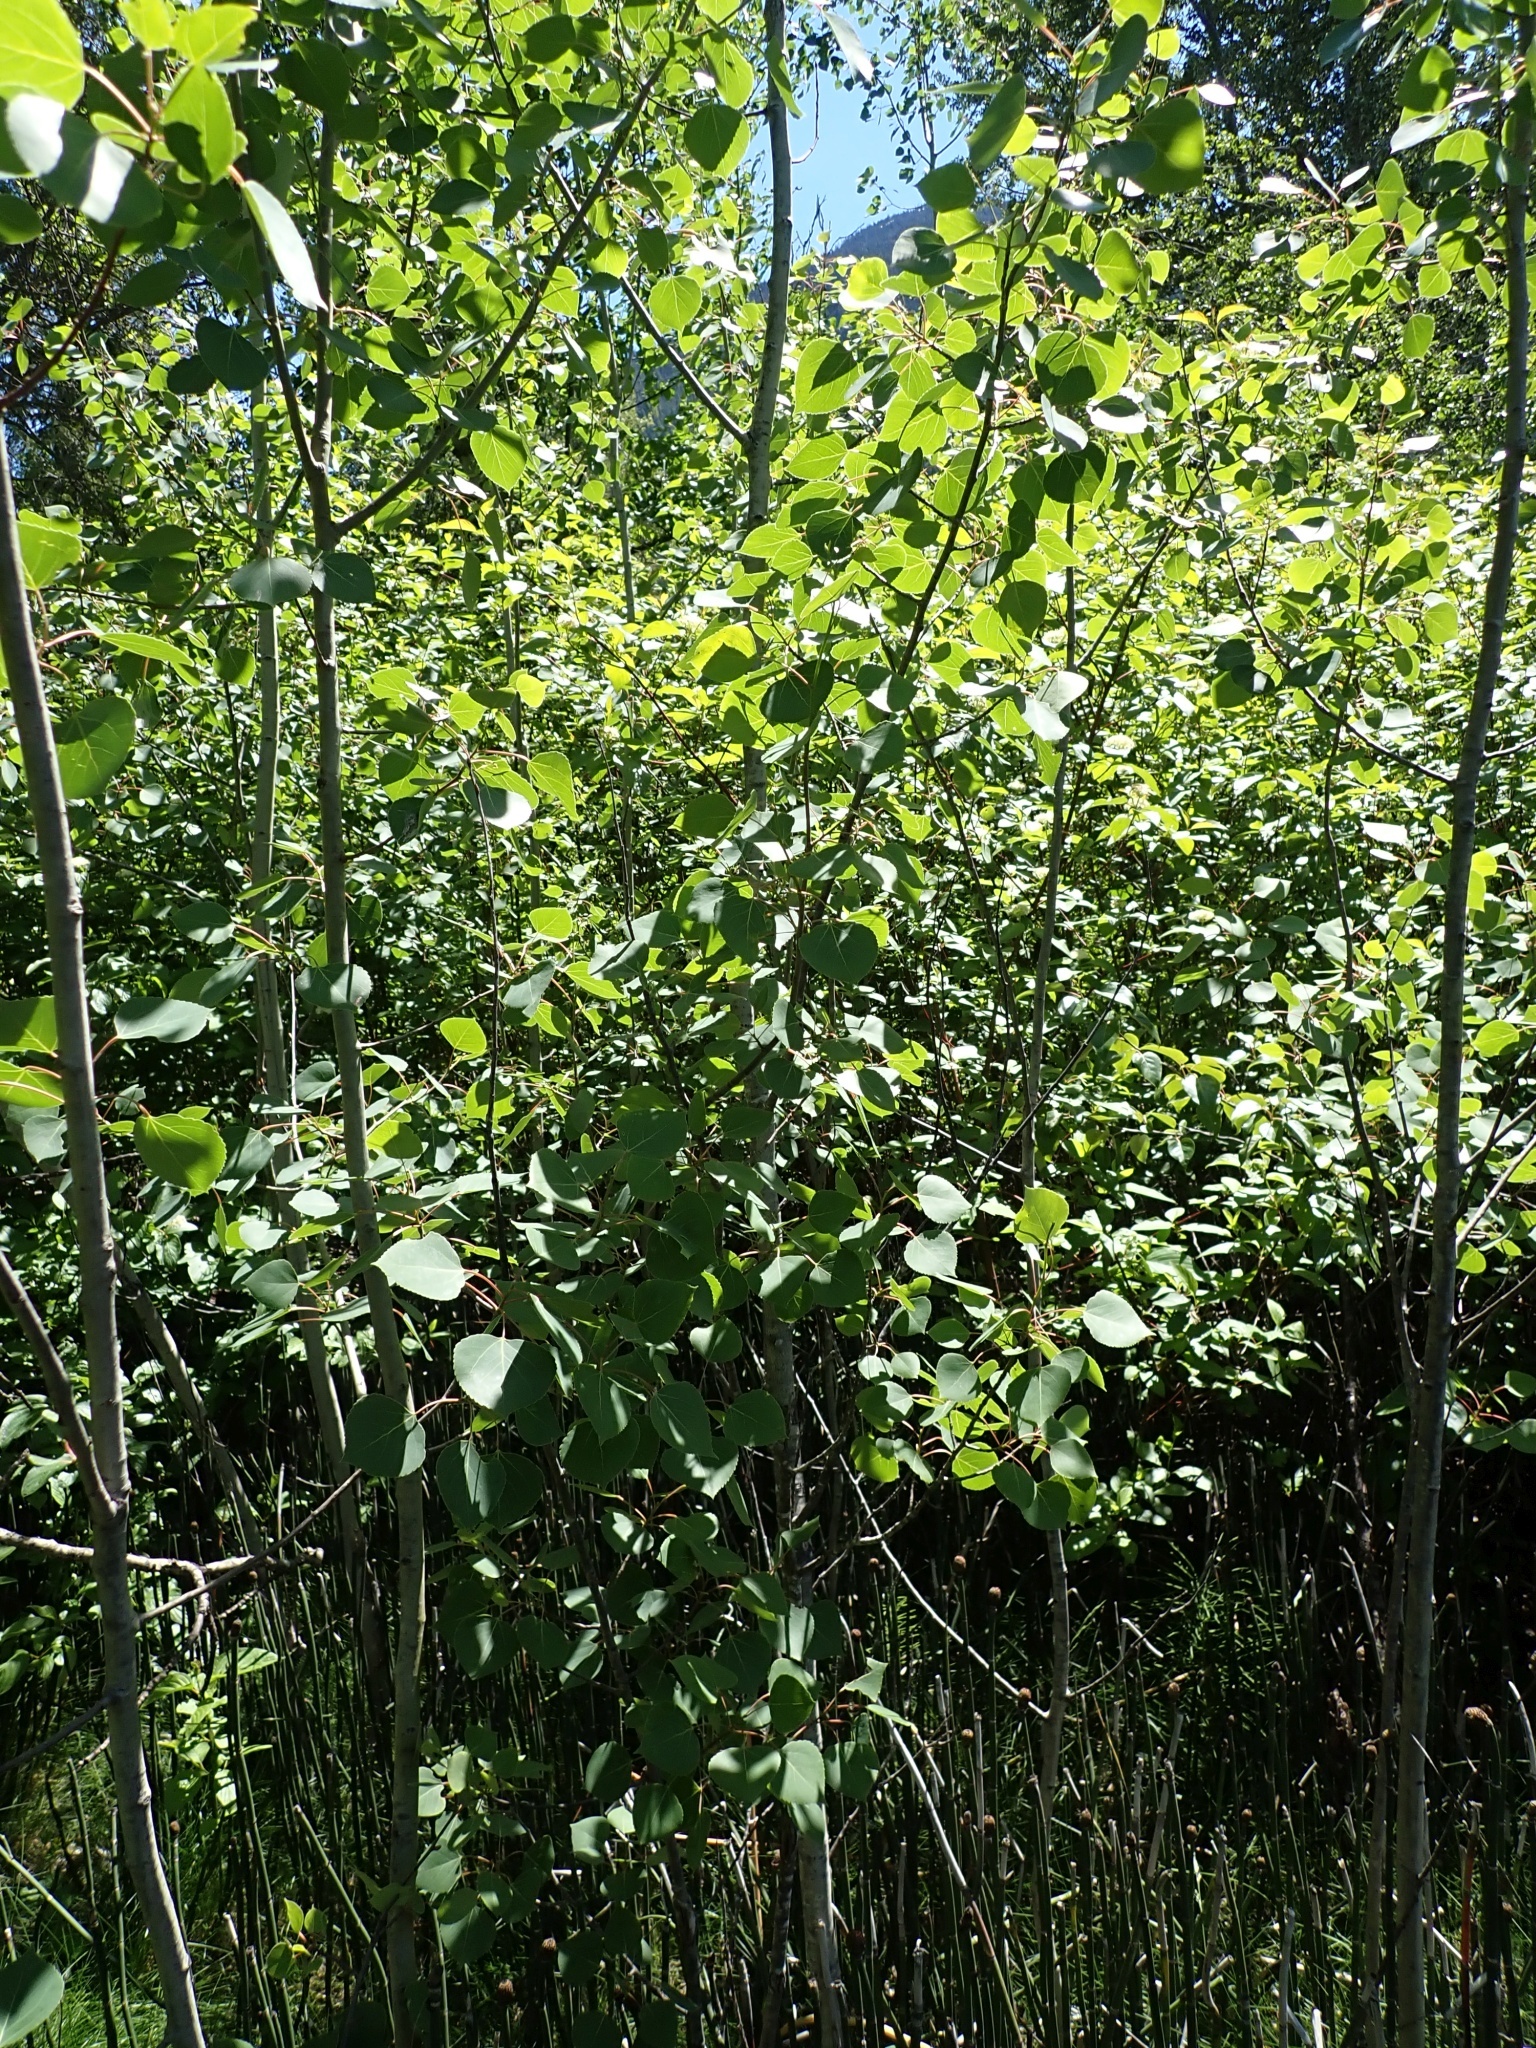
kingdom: Plantae
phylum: Tracheophyta
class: Magnoliopsida
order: Malpighiales
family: Salicaceae
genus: Populus
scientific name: Populus tremuloides
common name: Quaking aspen
